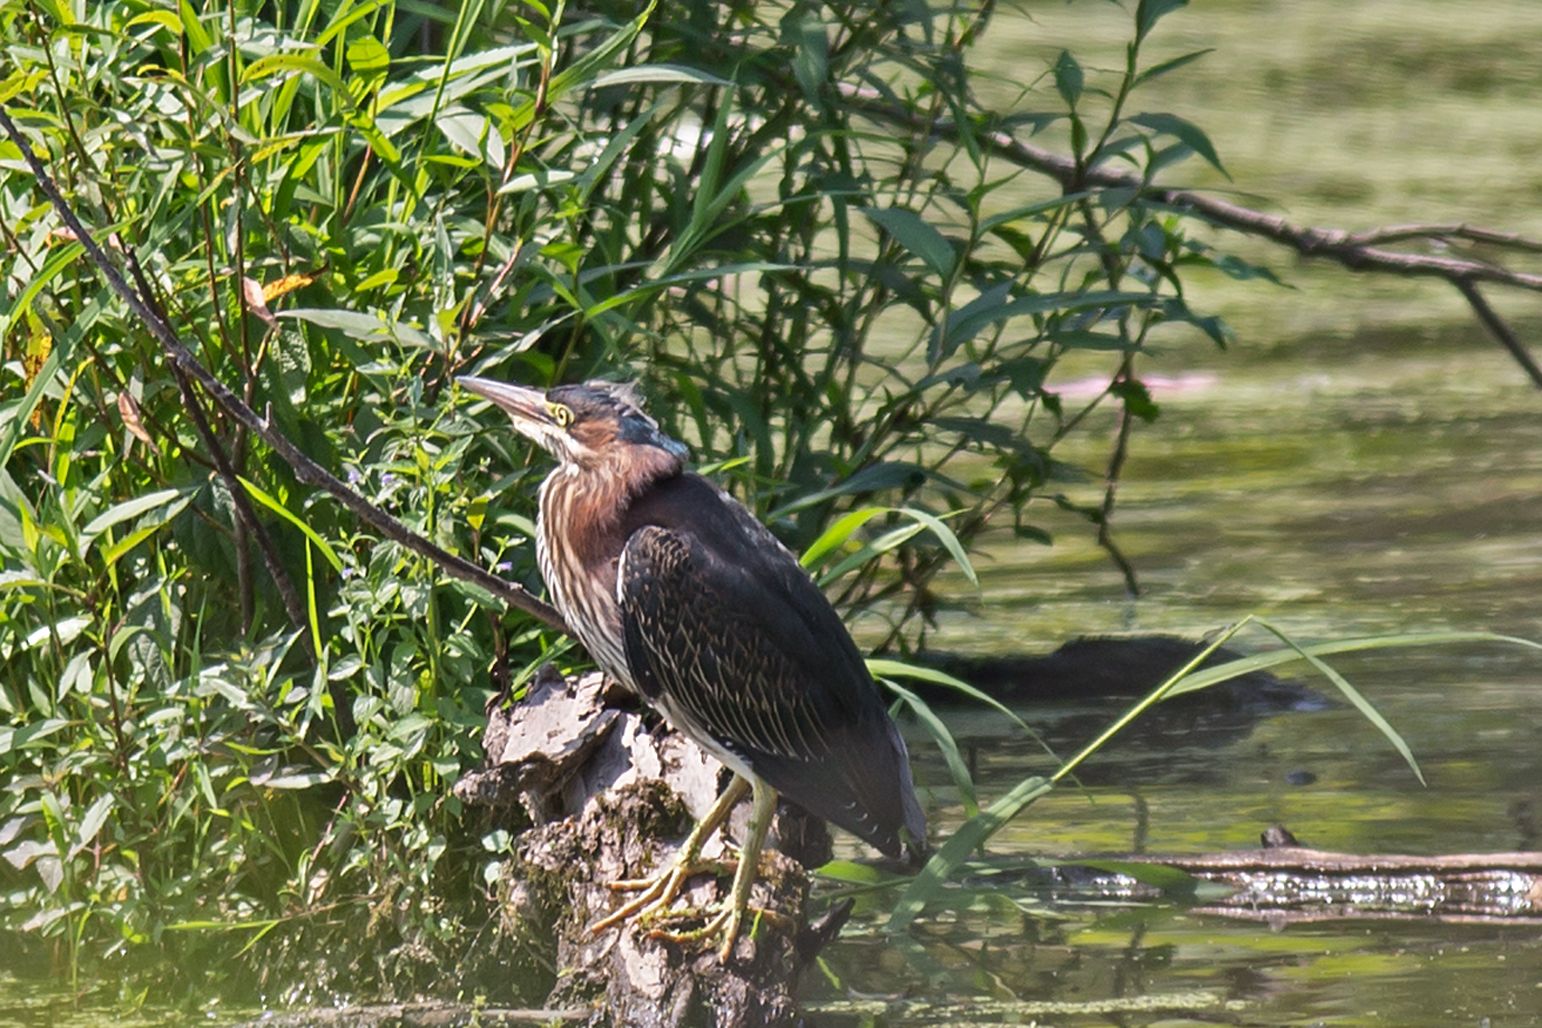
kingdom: Animalia
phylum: Chordata
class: Aves
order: Pelecaniformes
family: Ardeidae
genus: Butorides
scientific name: Butorides virescens
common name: Green heron
